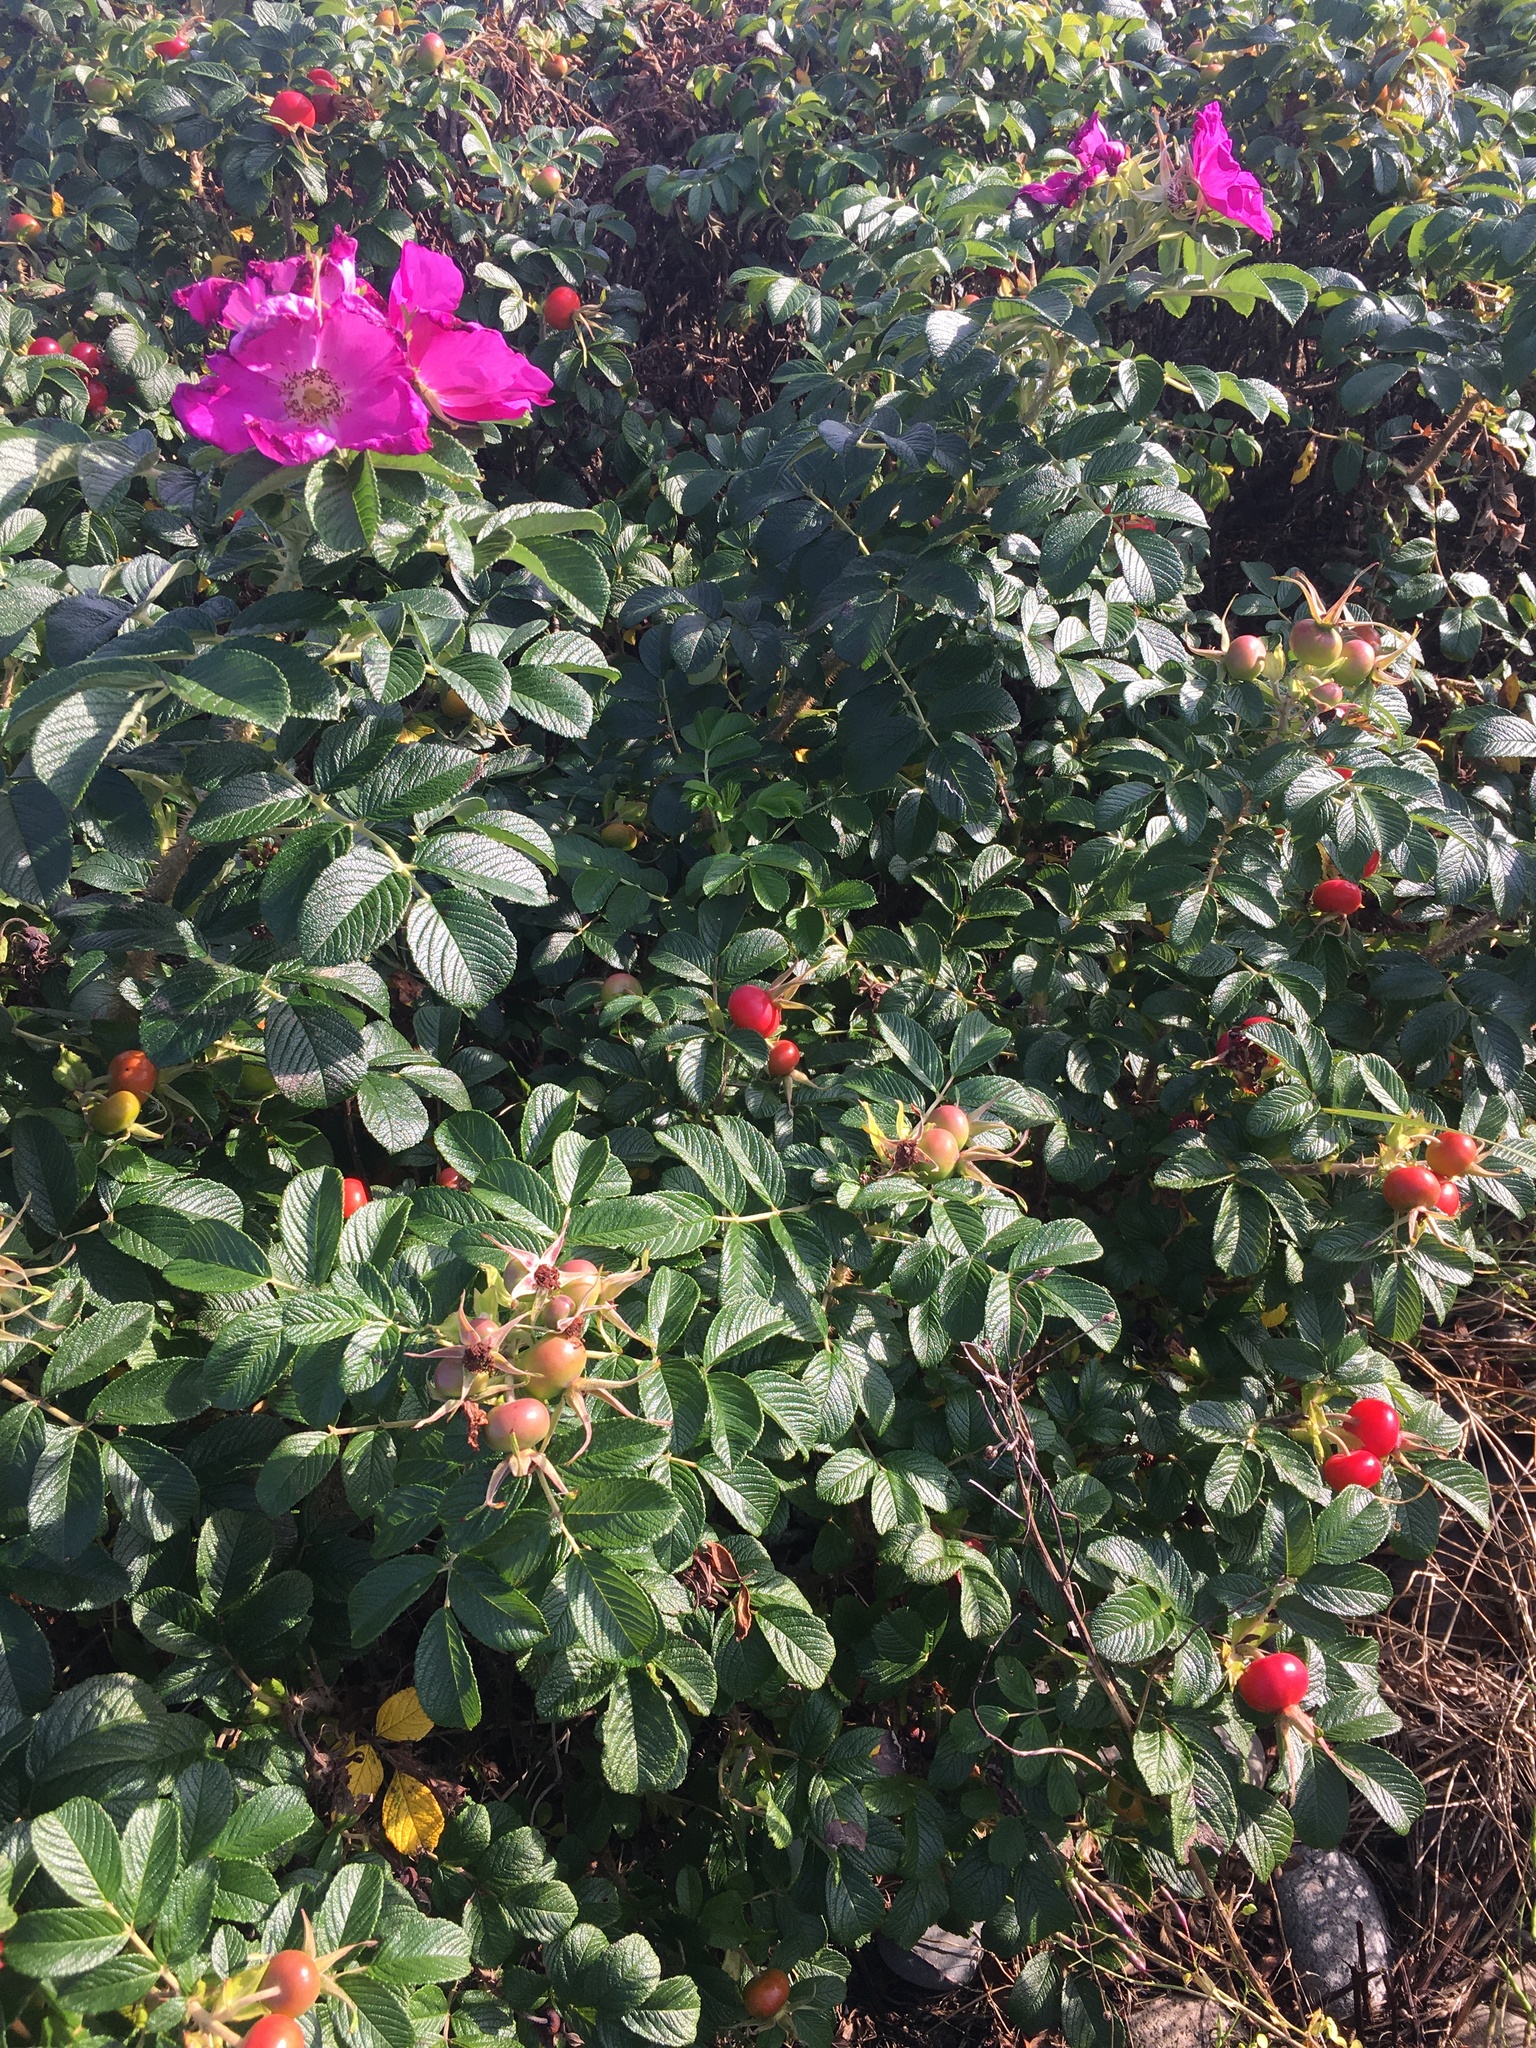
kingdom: Plantae
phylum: Tracheophyta
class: Magnoliopsida
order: Rosales
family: Rosaceae
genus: Rosa
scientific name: Rosa rugosa
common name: Japanese rose
